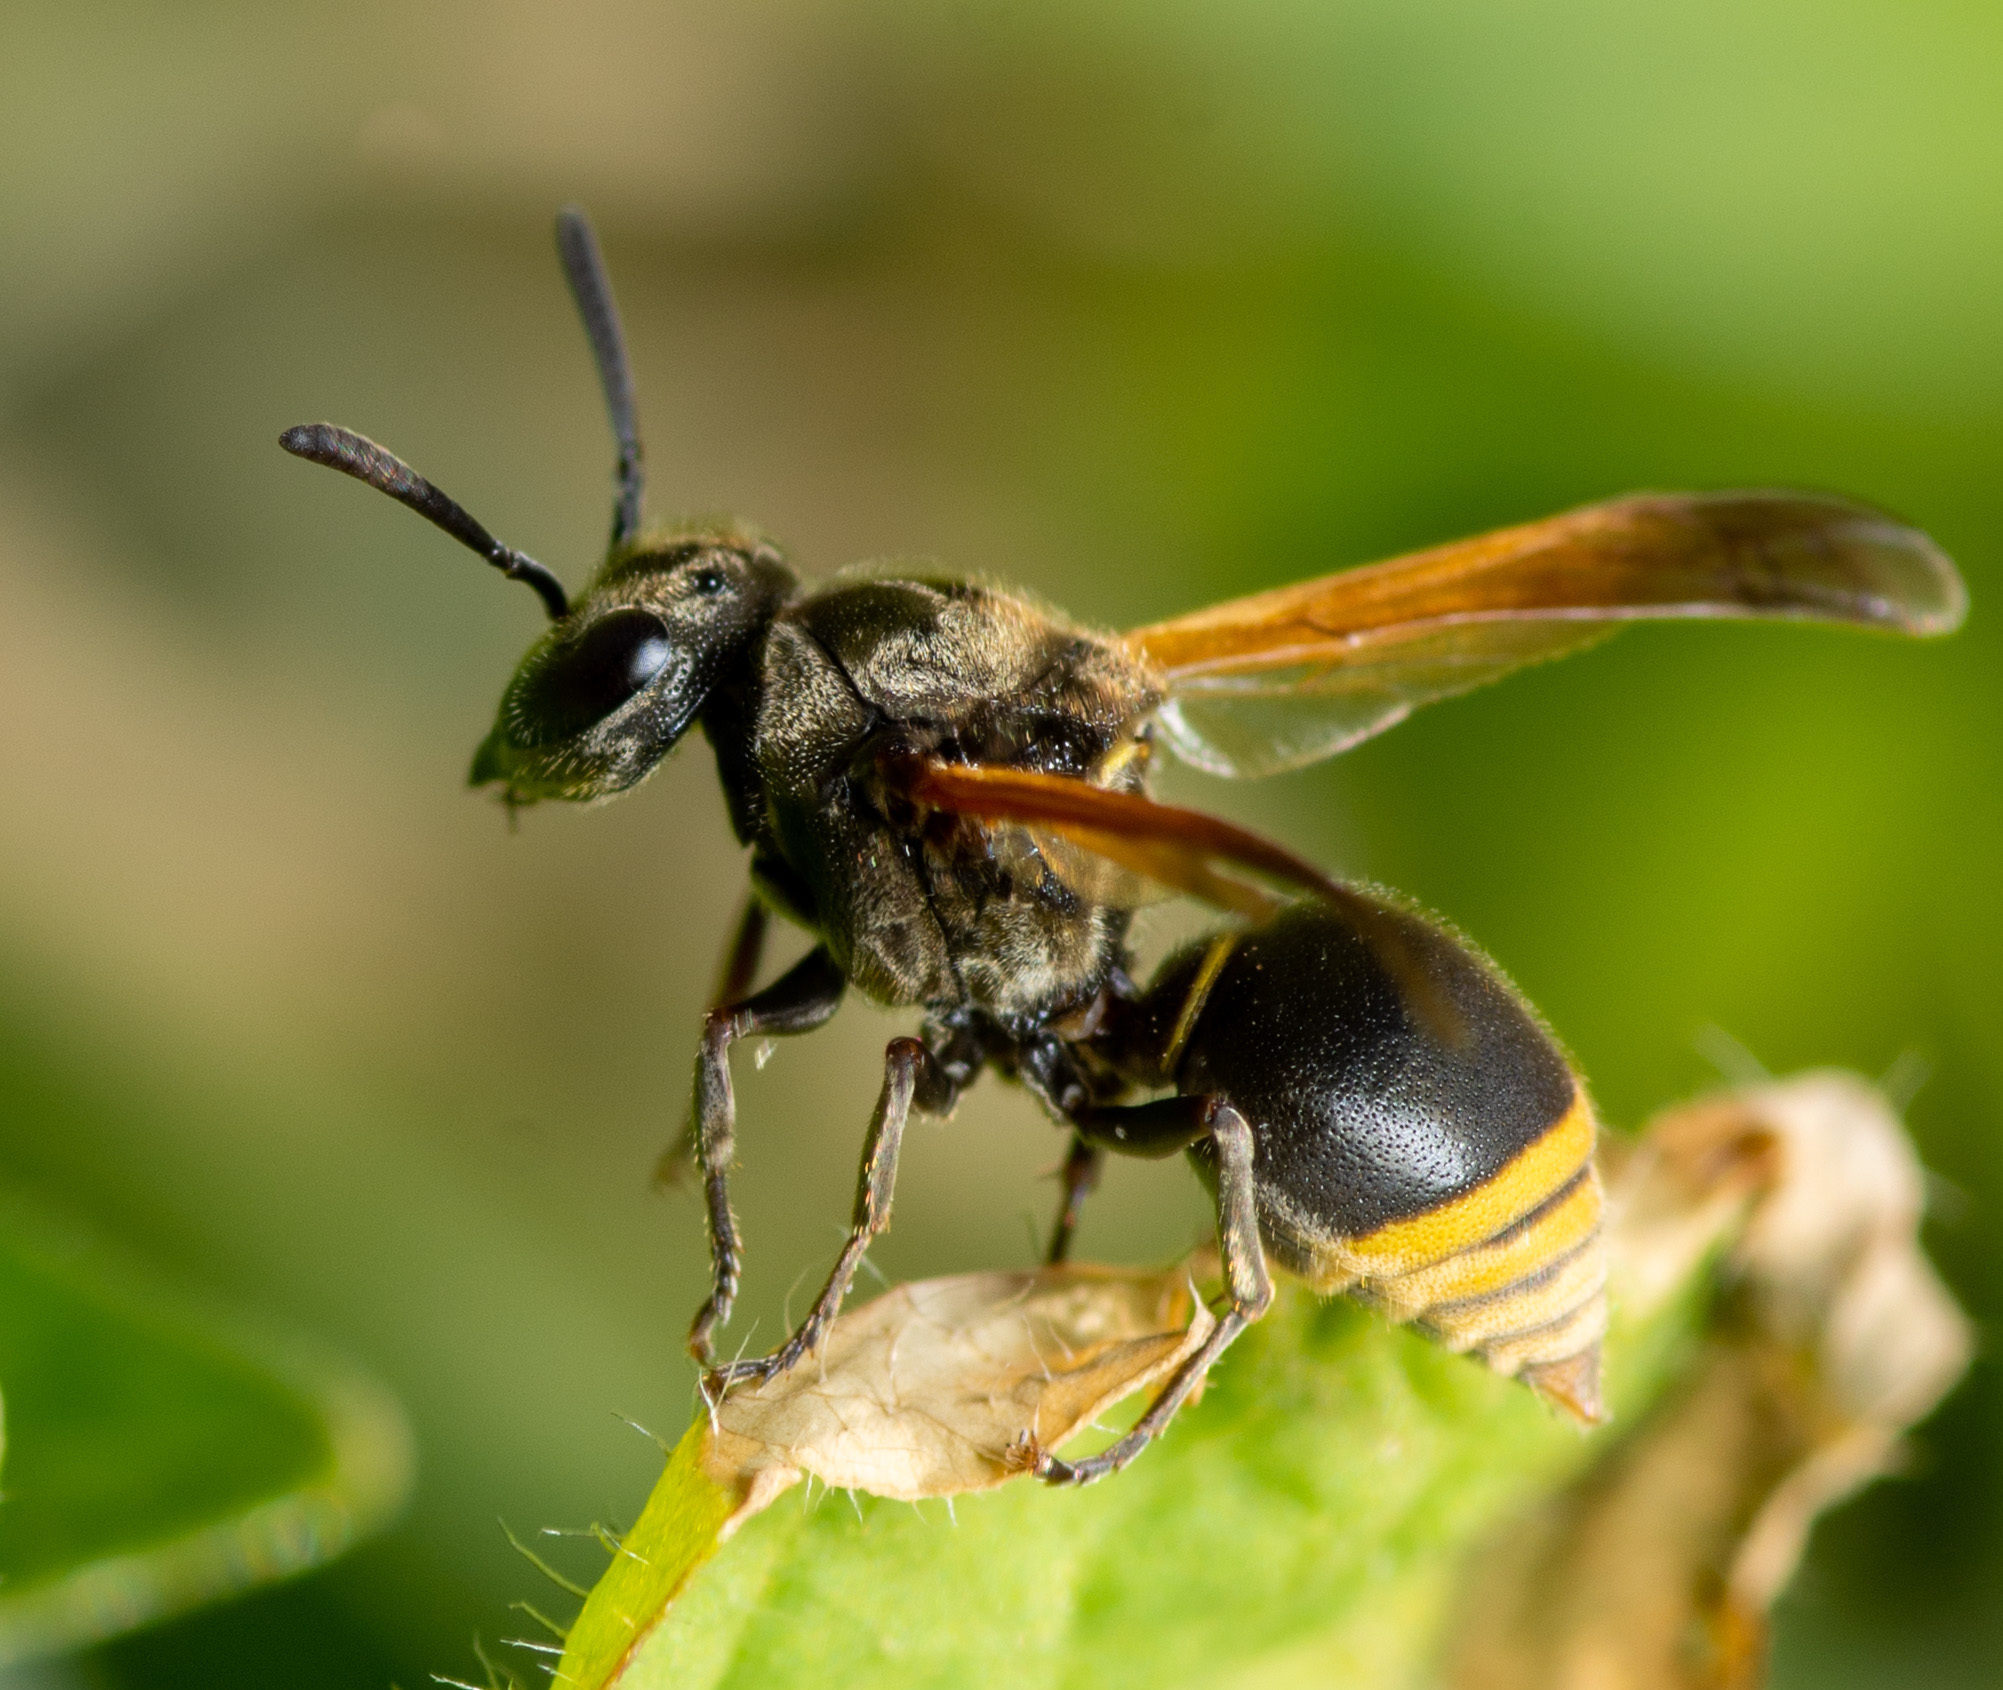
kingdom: Animalia
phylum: Arthropoda
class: Insecta
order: Hymenoptera
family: Vespidae
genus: Brachygastra
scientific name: Brachygastra mellifica
